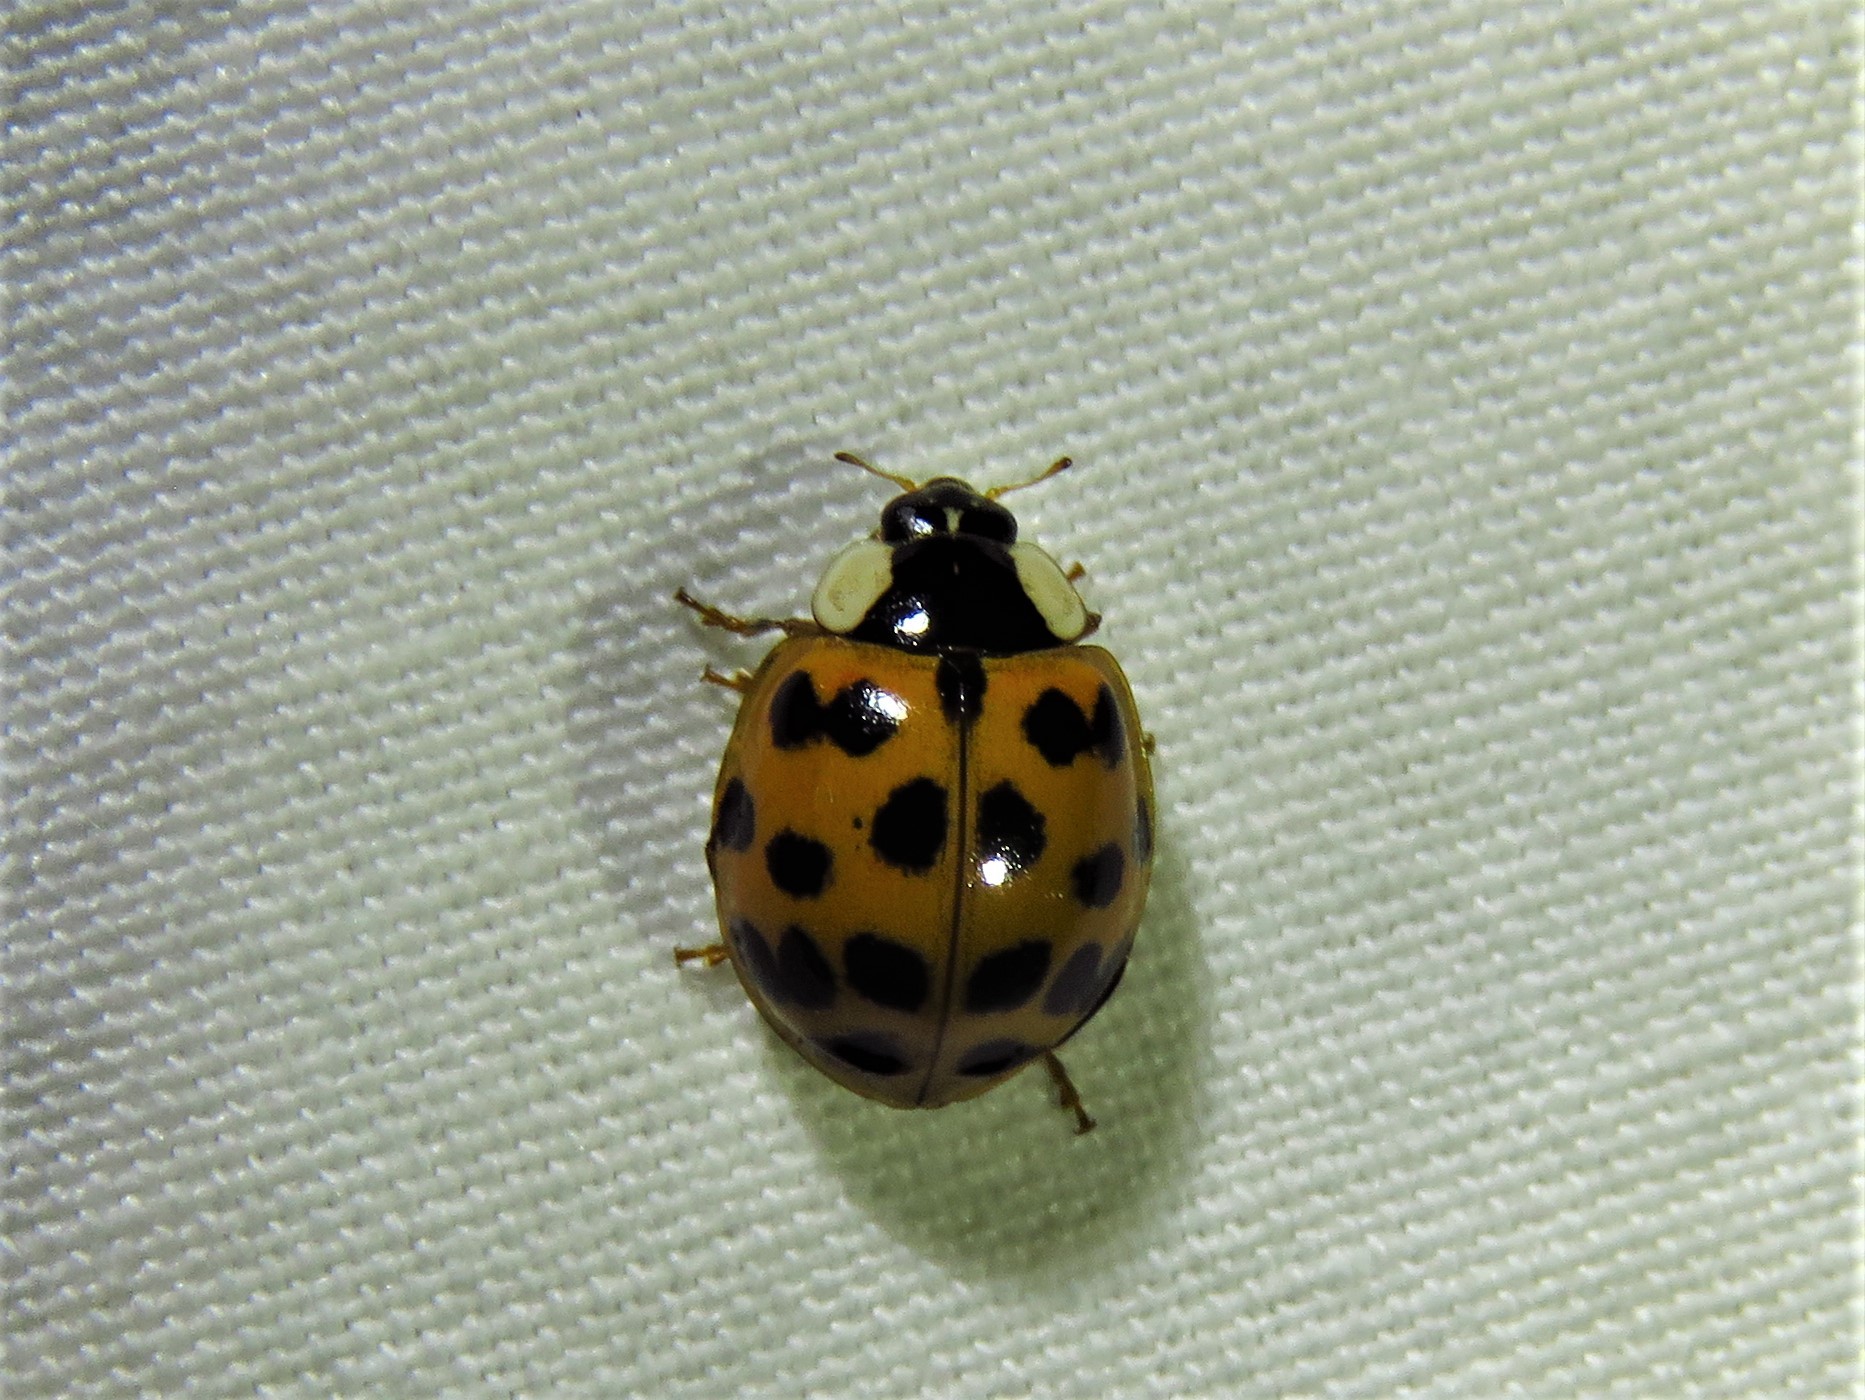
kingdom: Animalia
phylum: Arthropoda
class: Insecta
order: Coleoptera
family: Coccinellidae
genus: Harmonia
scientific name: Harmonia axyridis
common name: Harlequin ladybird
